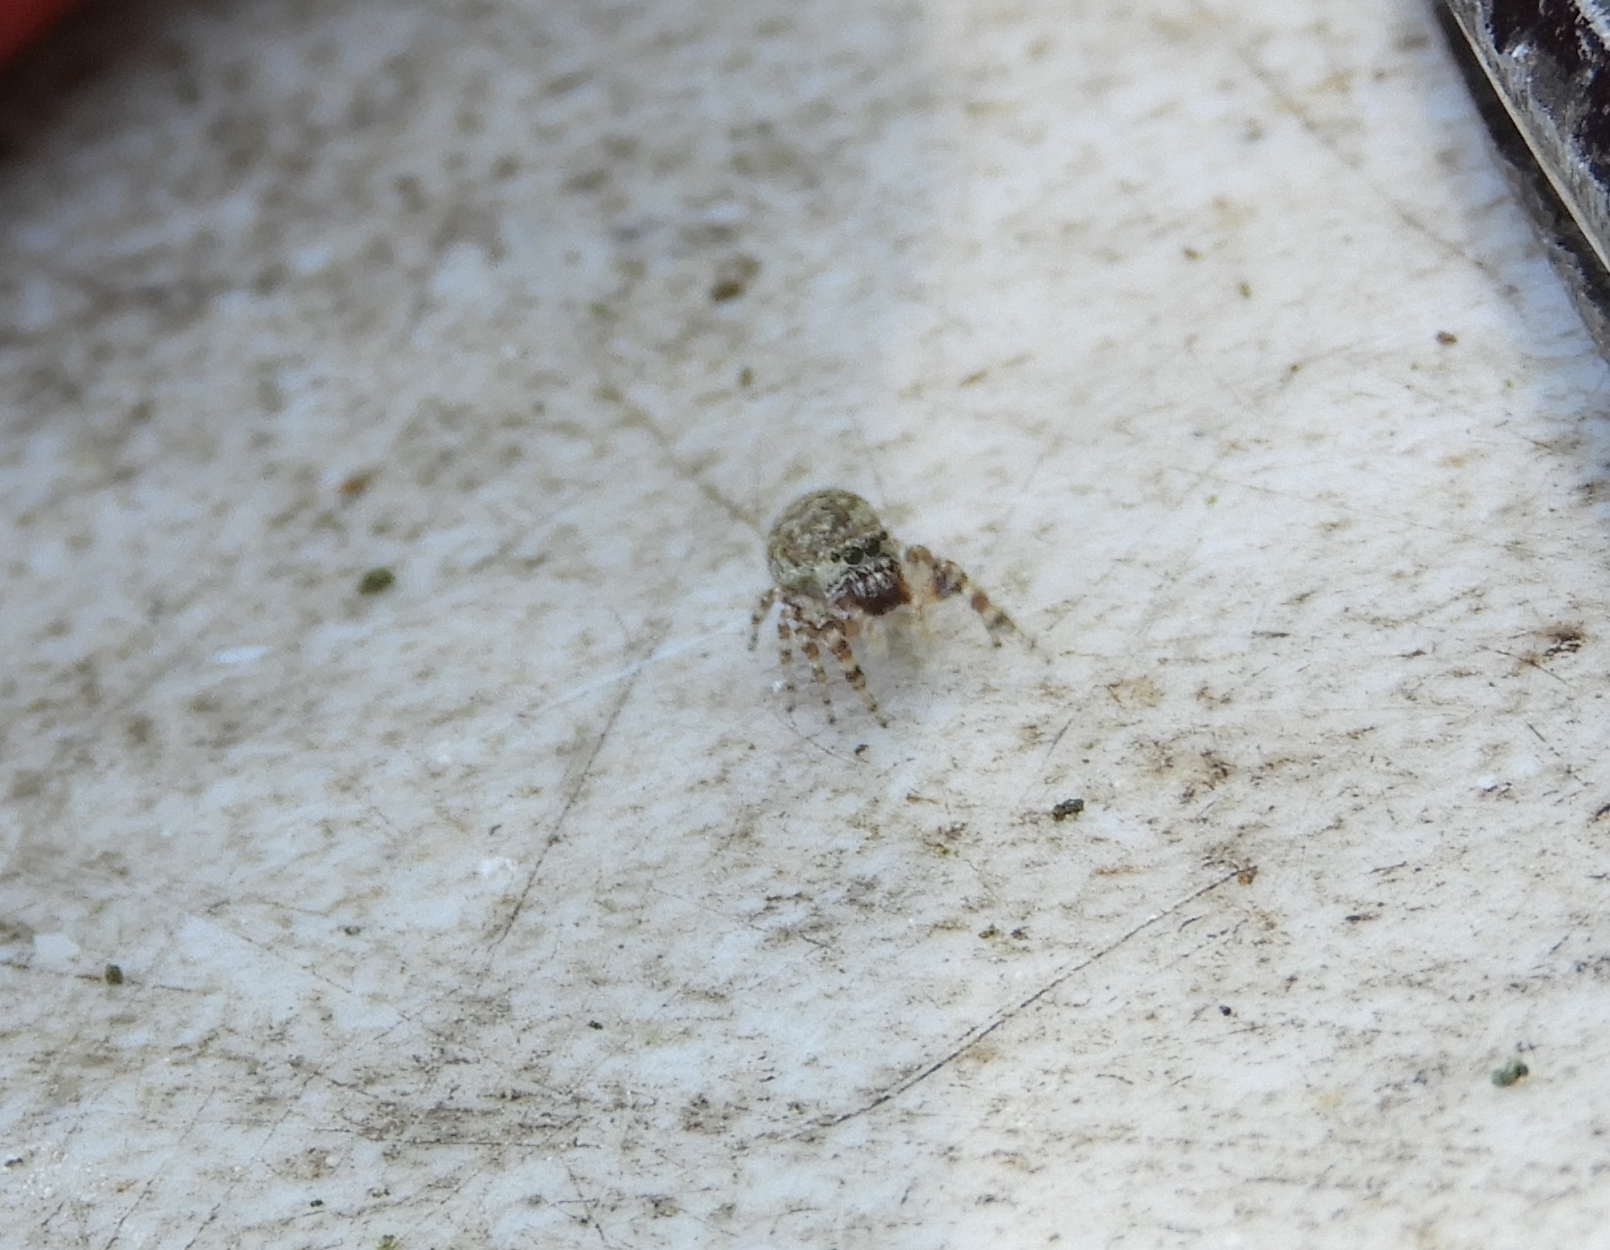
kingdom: Animalia
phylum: Arthropoda
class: Arachnida
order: Araneae
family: Salticidae
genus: Pelegrina
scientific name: Pelegrina
